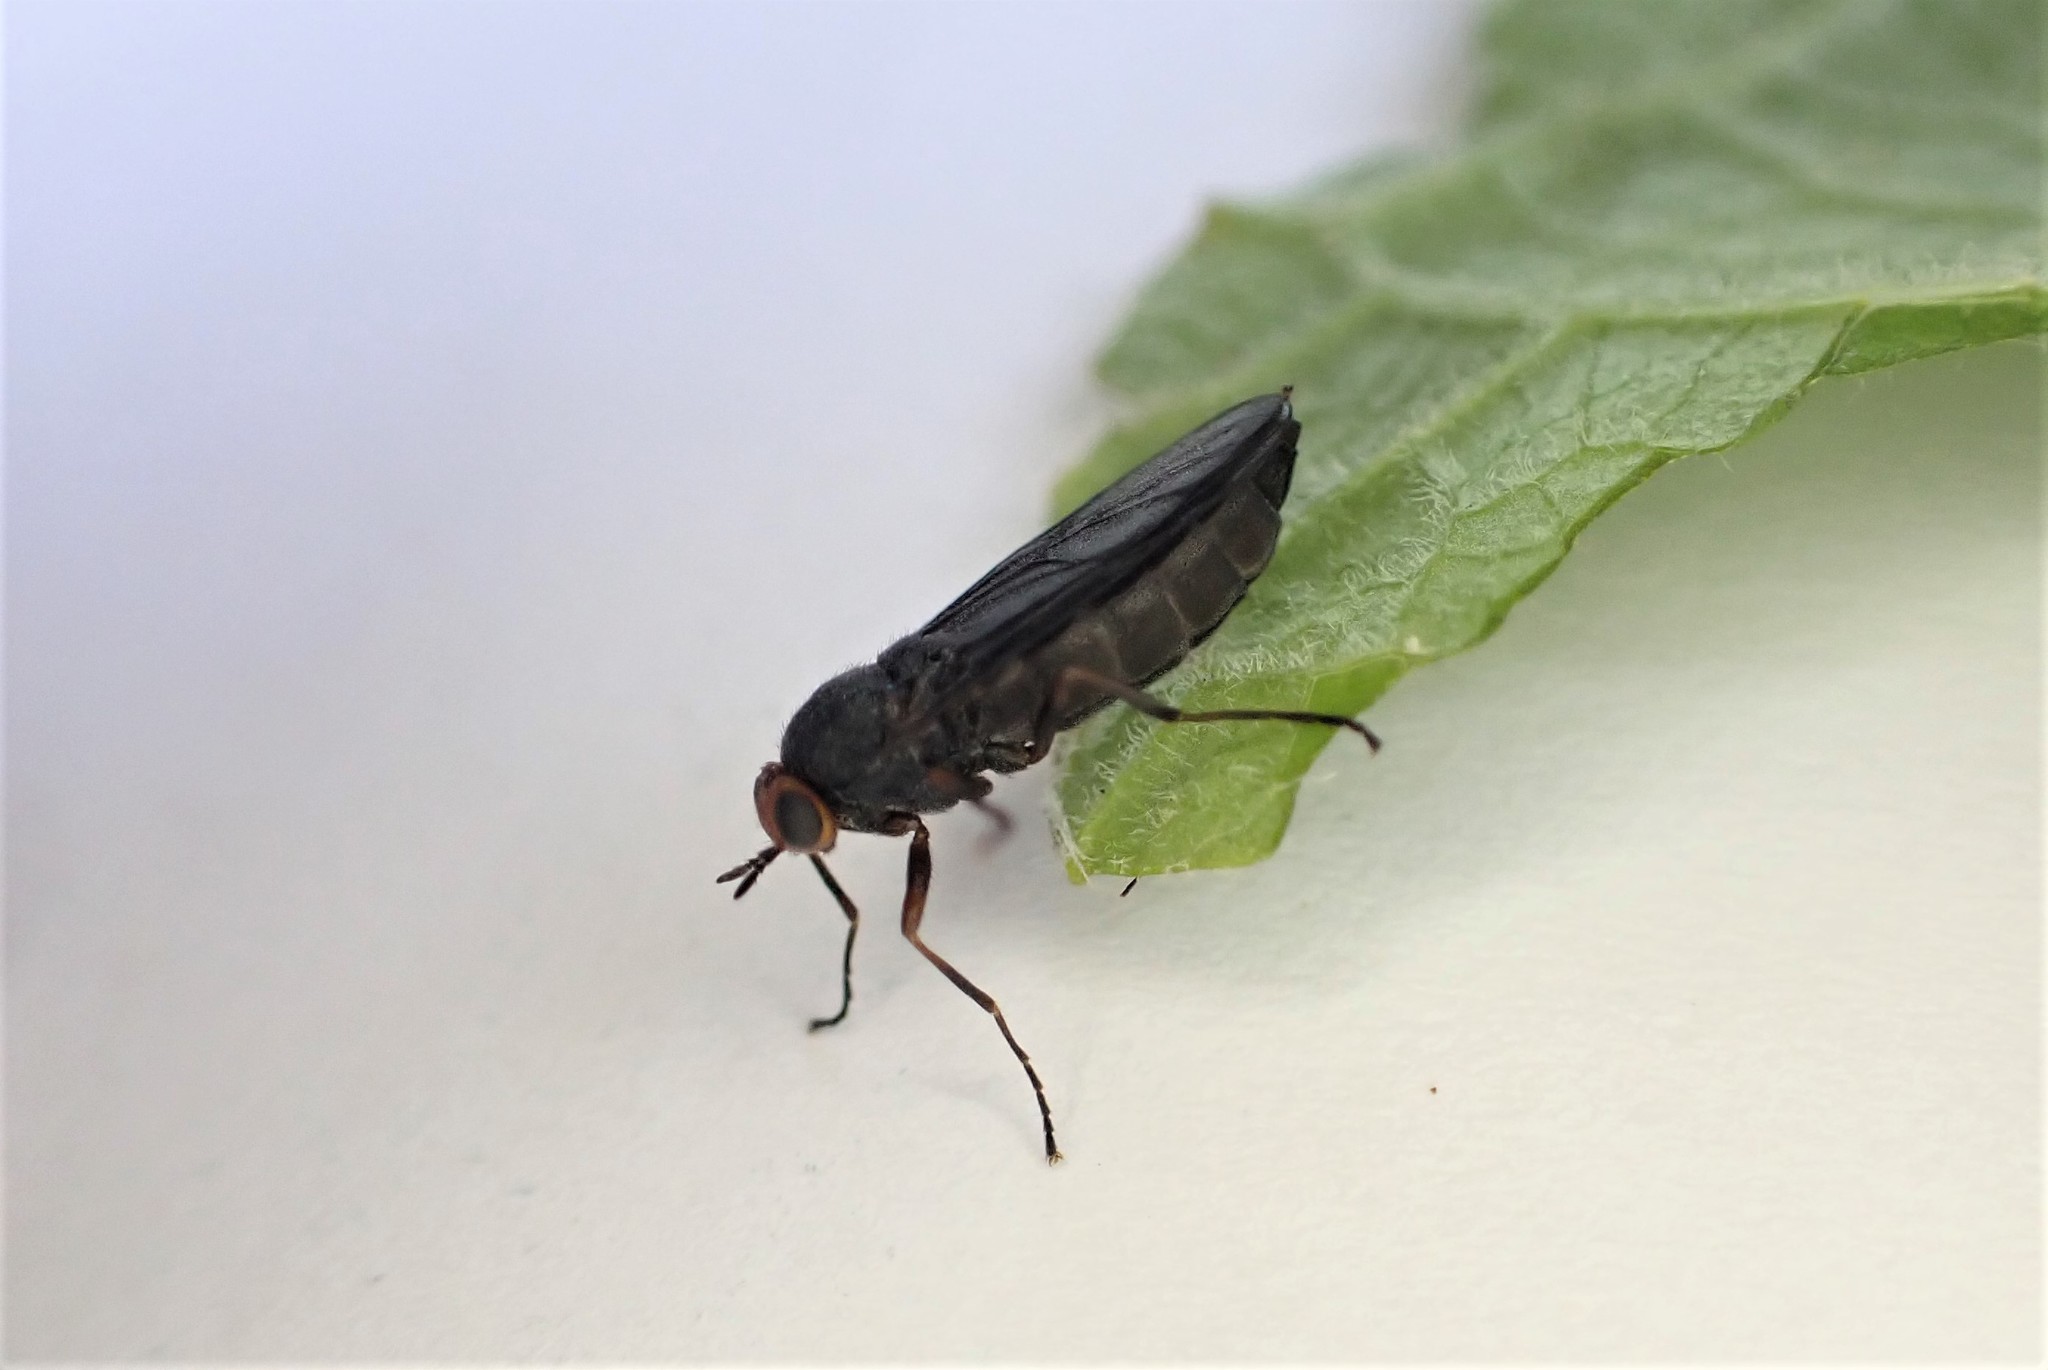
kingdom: Animalia
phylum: Arthropoda
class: Insecta
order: Diptera
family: Stratiomyidae
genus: Inopus
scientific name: Inopus rubriceps
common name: Soldier fly
